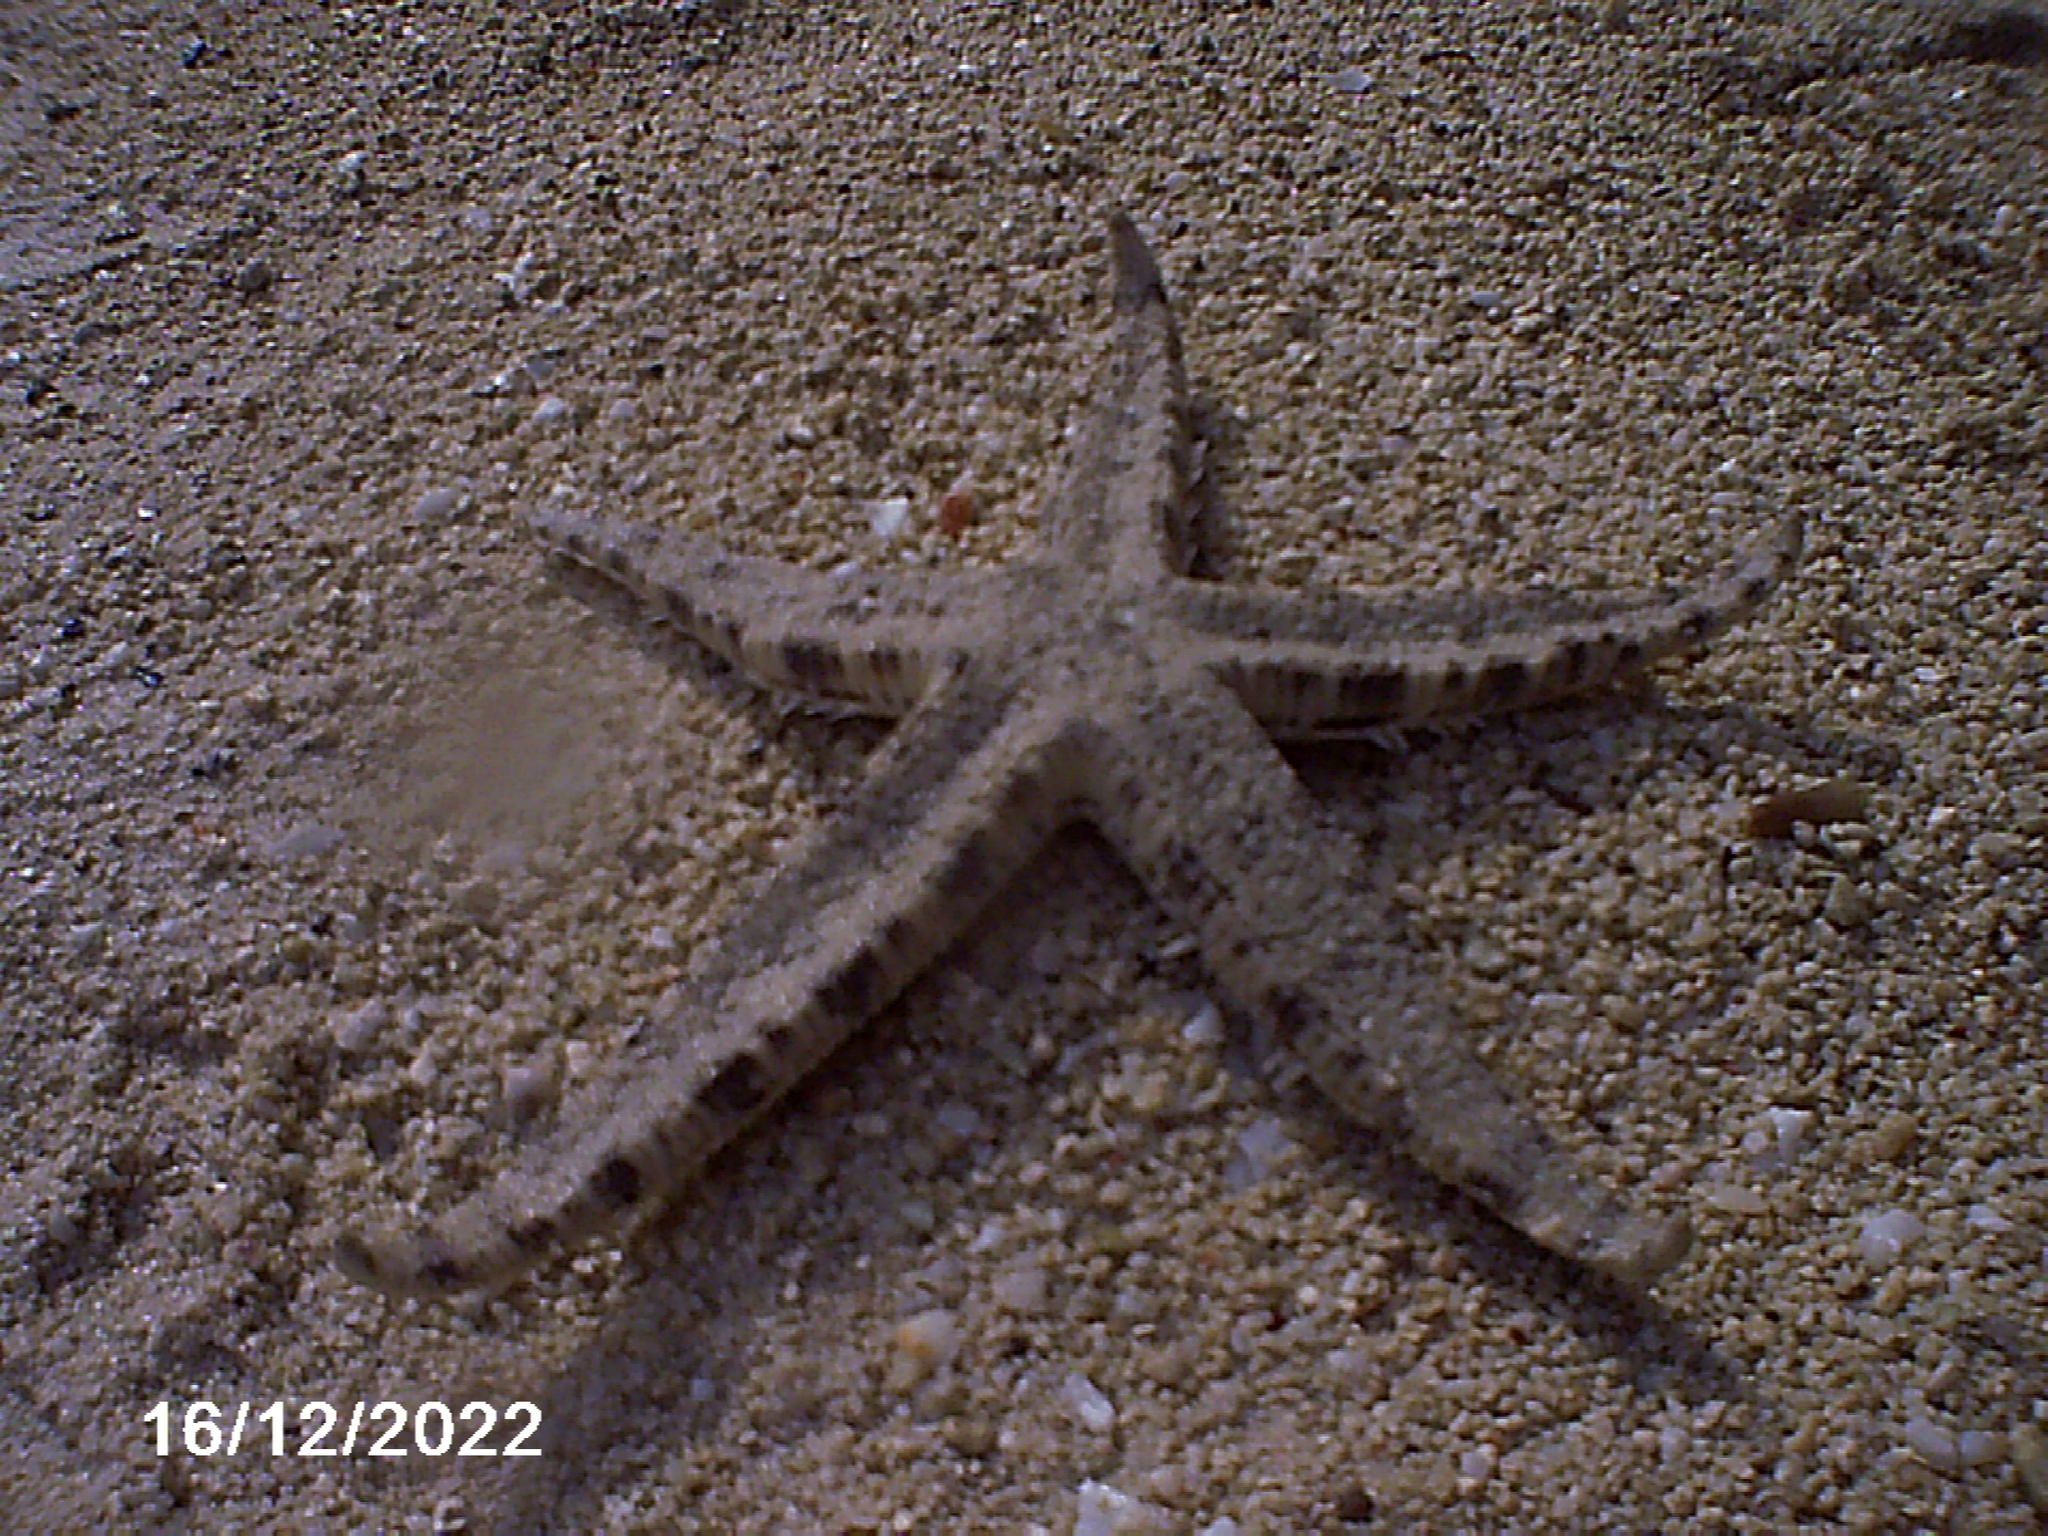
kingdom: Animalia
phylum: Echinodermata
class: Asteroidea
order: Valvatida
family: Archasteridae
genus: Archaster
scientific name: Archaster typicus
